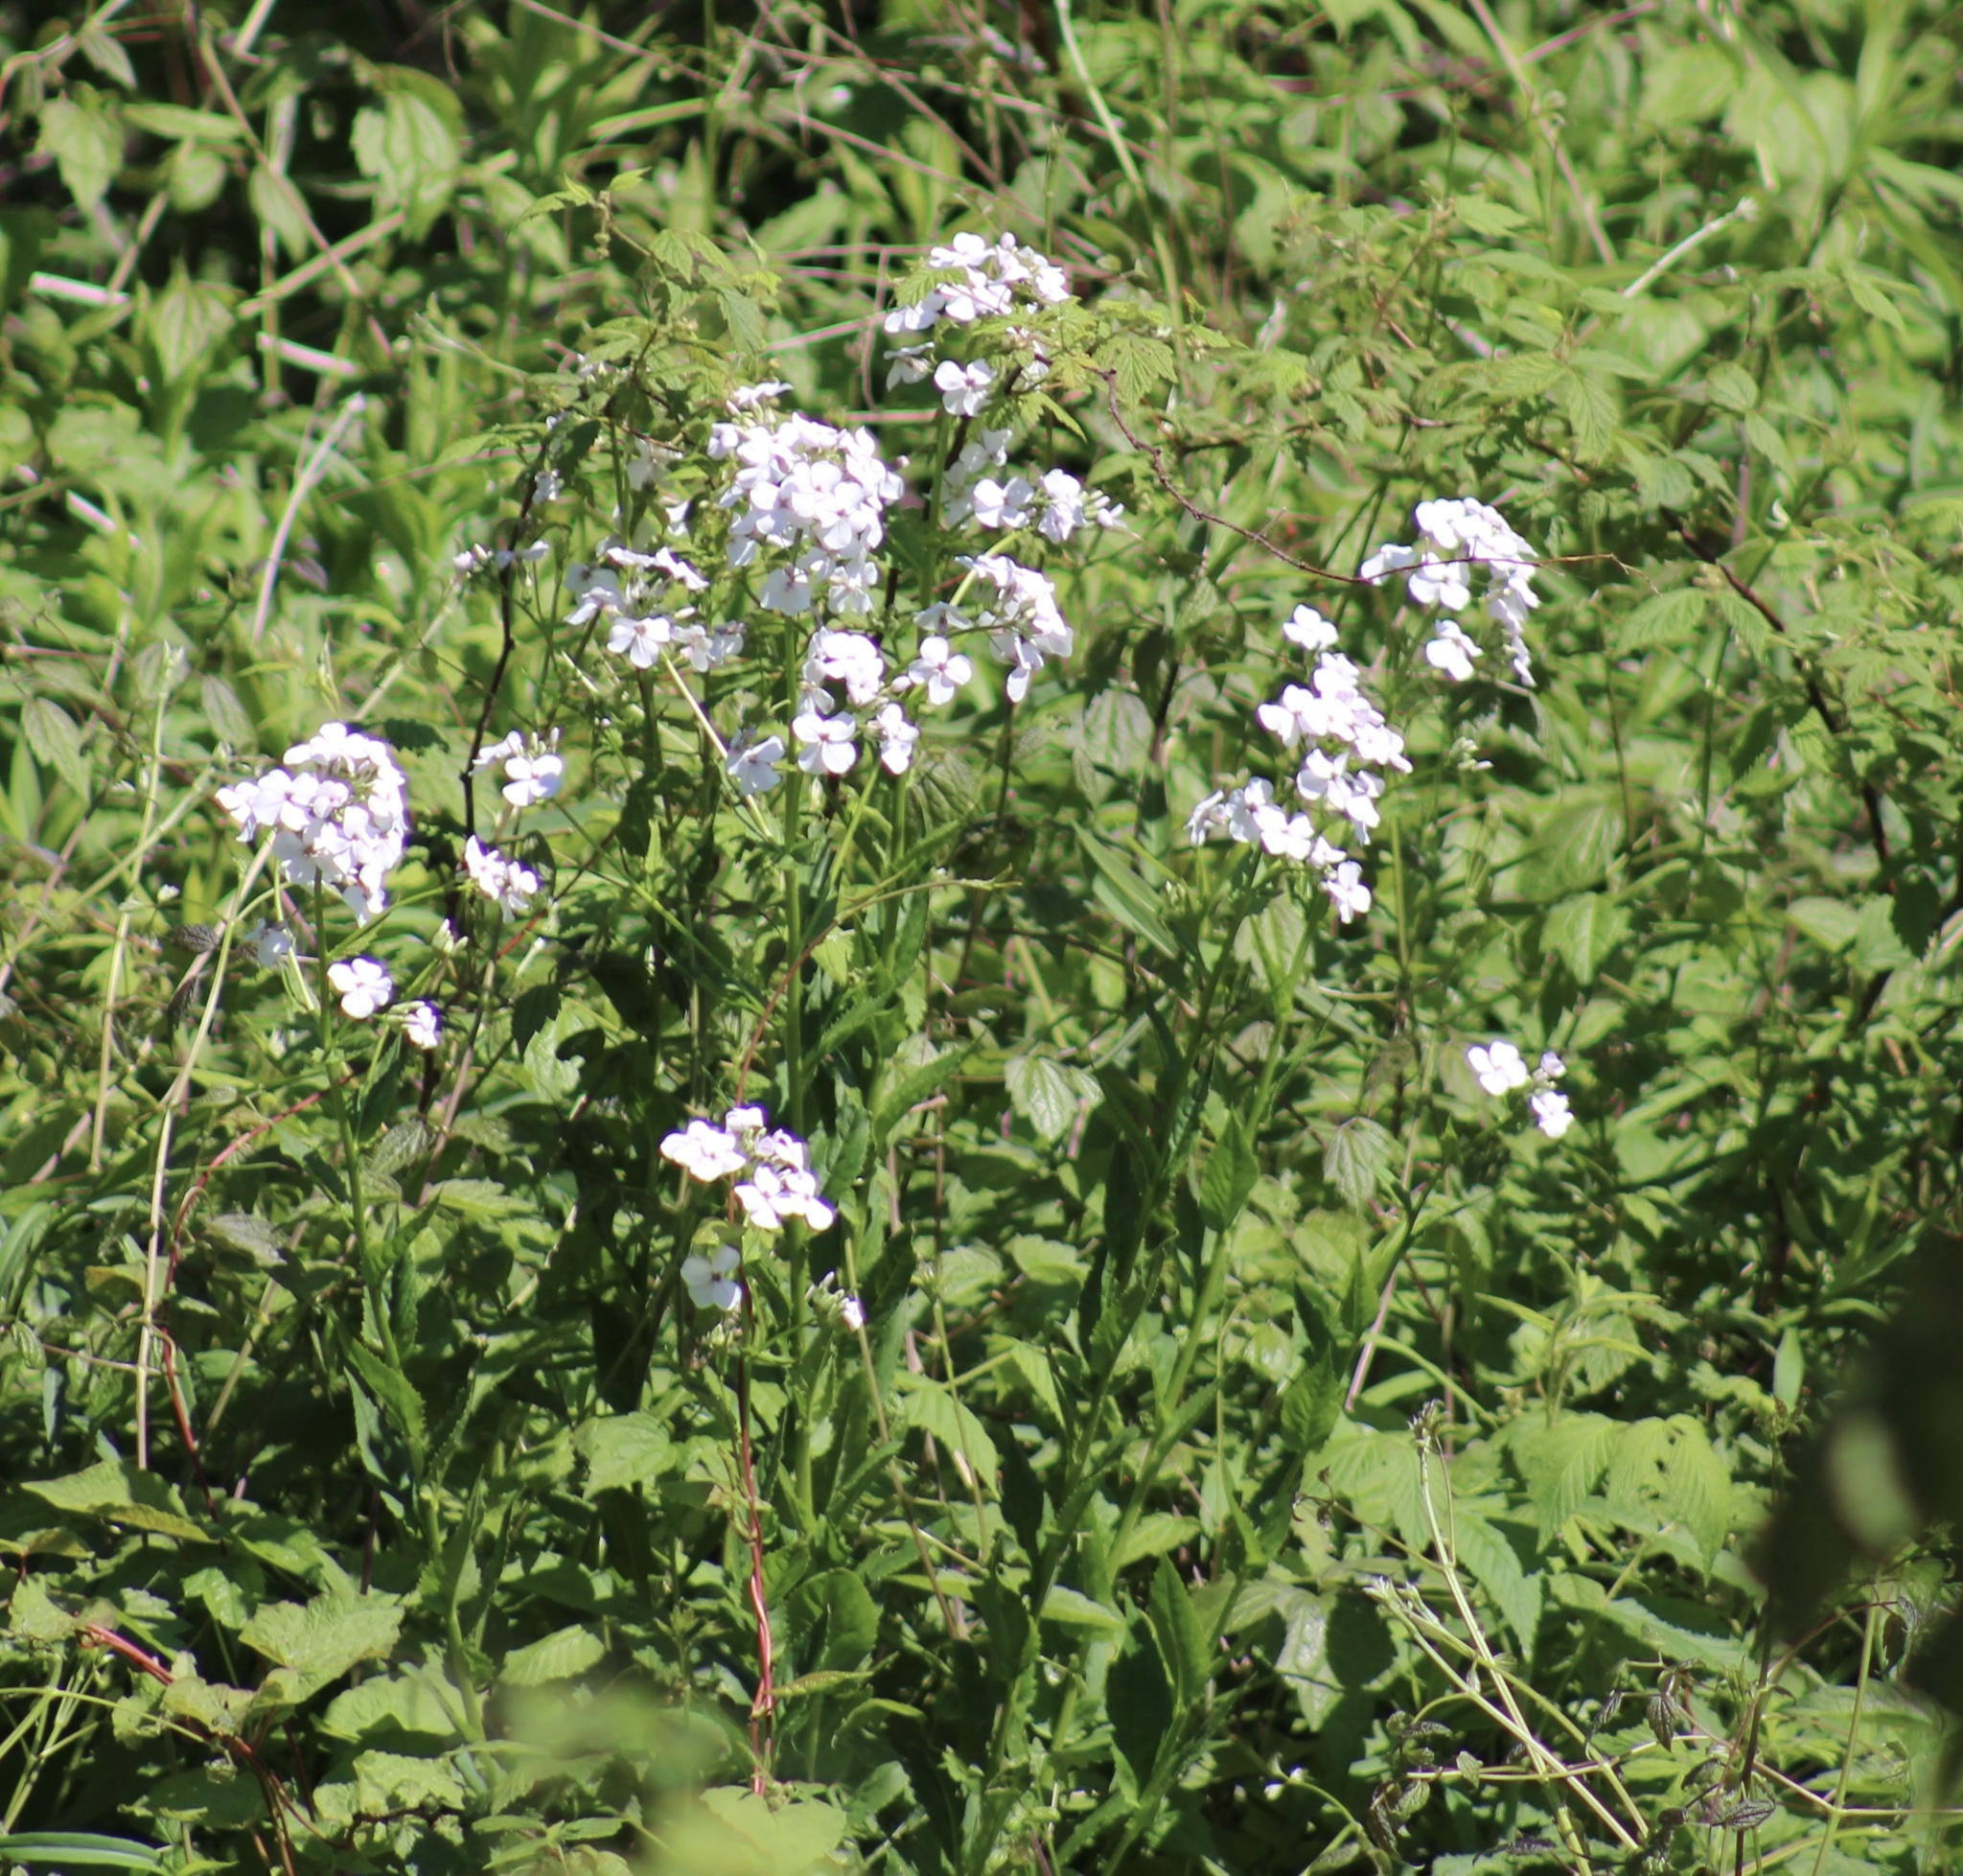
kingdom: Plantae
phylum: Tracheophyta
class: Magnoliopsida
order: Brassicales
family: Brassicaceae
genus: Hesperis
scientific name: Hesperis matronalis
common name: Dame's-violet
